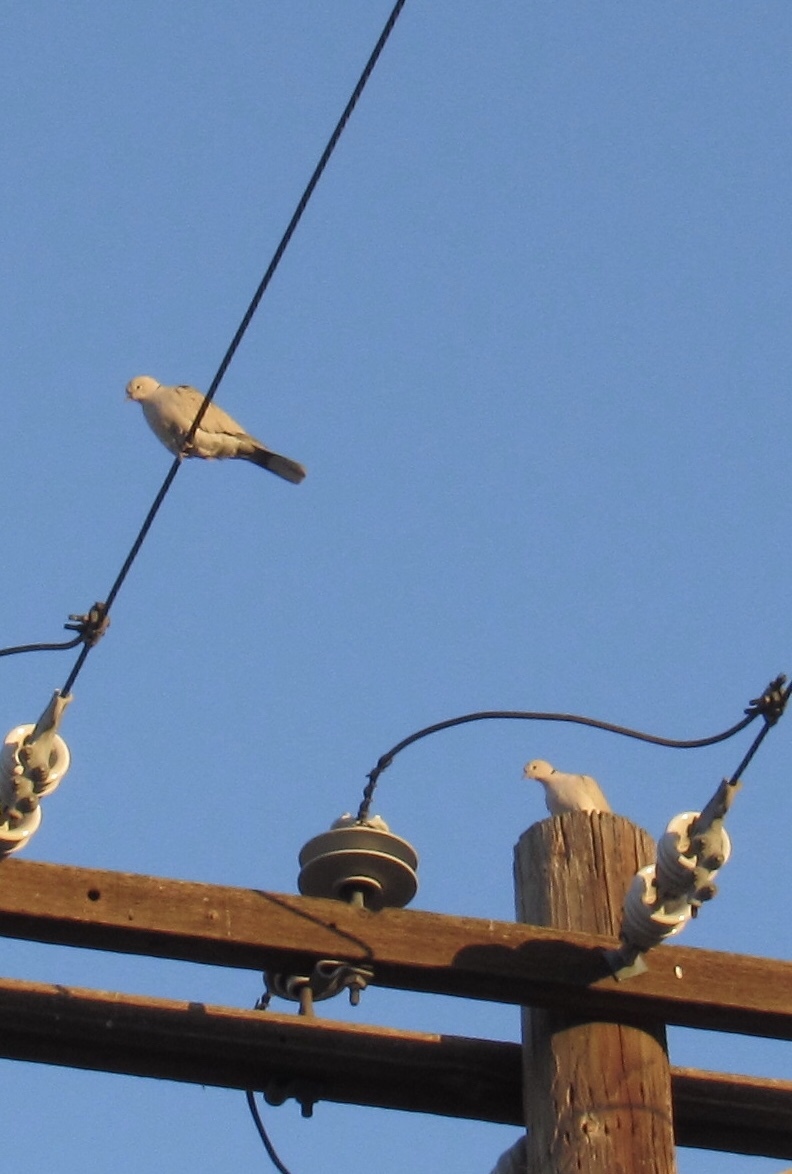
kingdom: Animalia
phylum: Chordata
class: Aves
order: Columbiformes
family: Columbidae
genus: Streptopelia
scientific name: Streptopelia decaocto
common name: Eurasian collared dove
